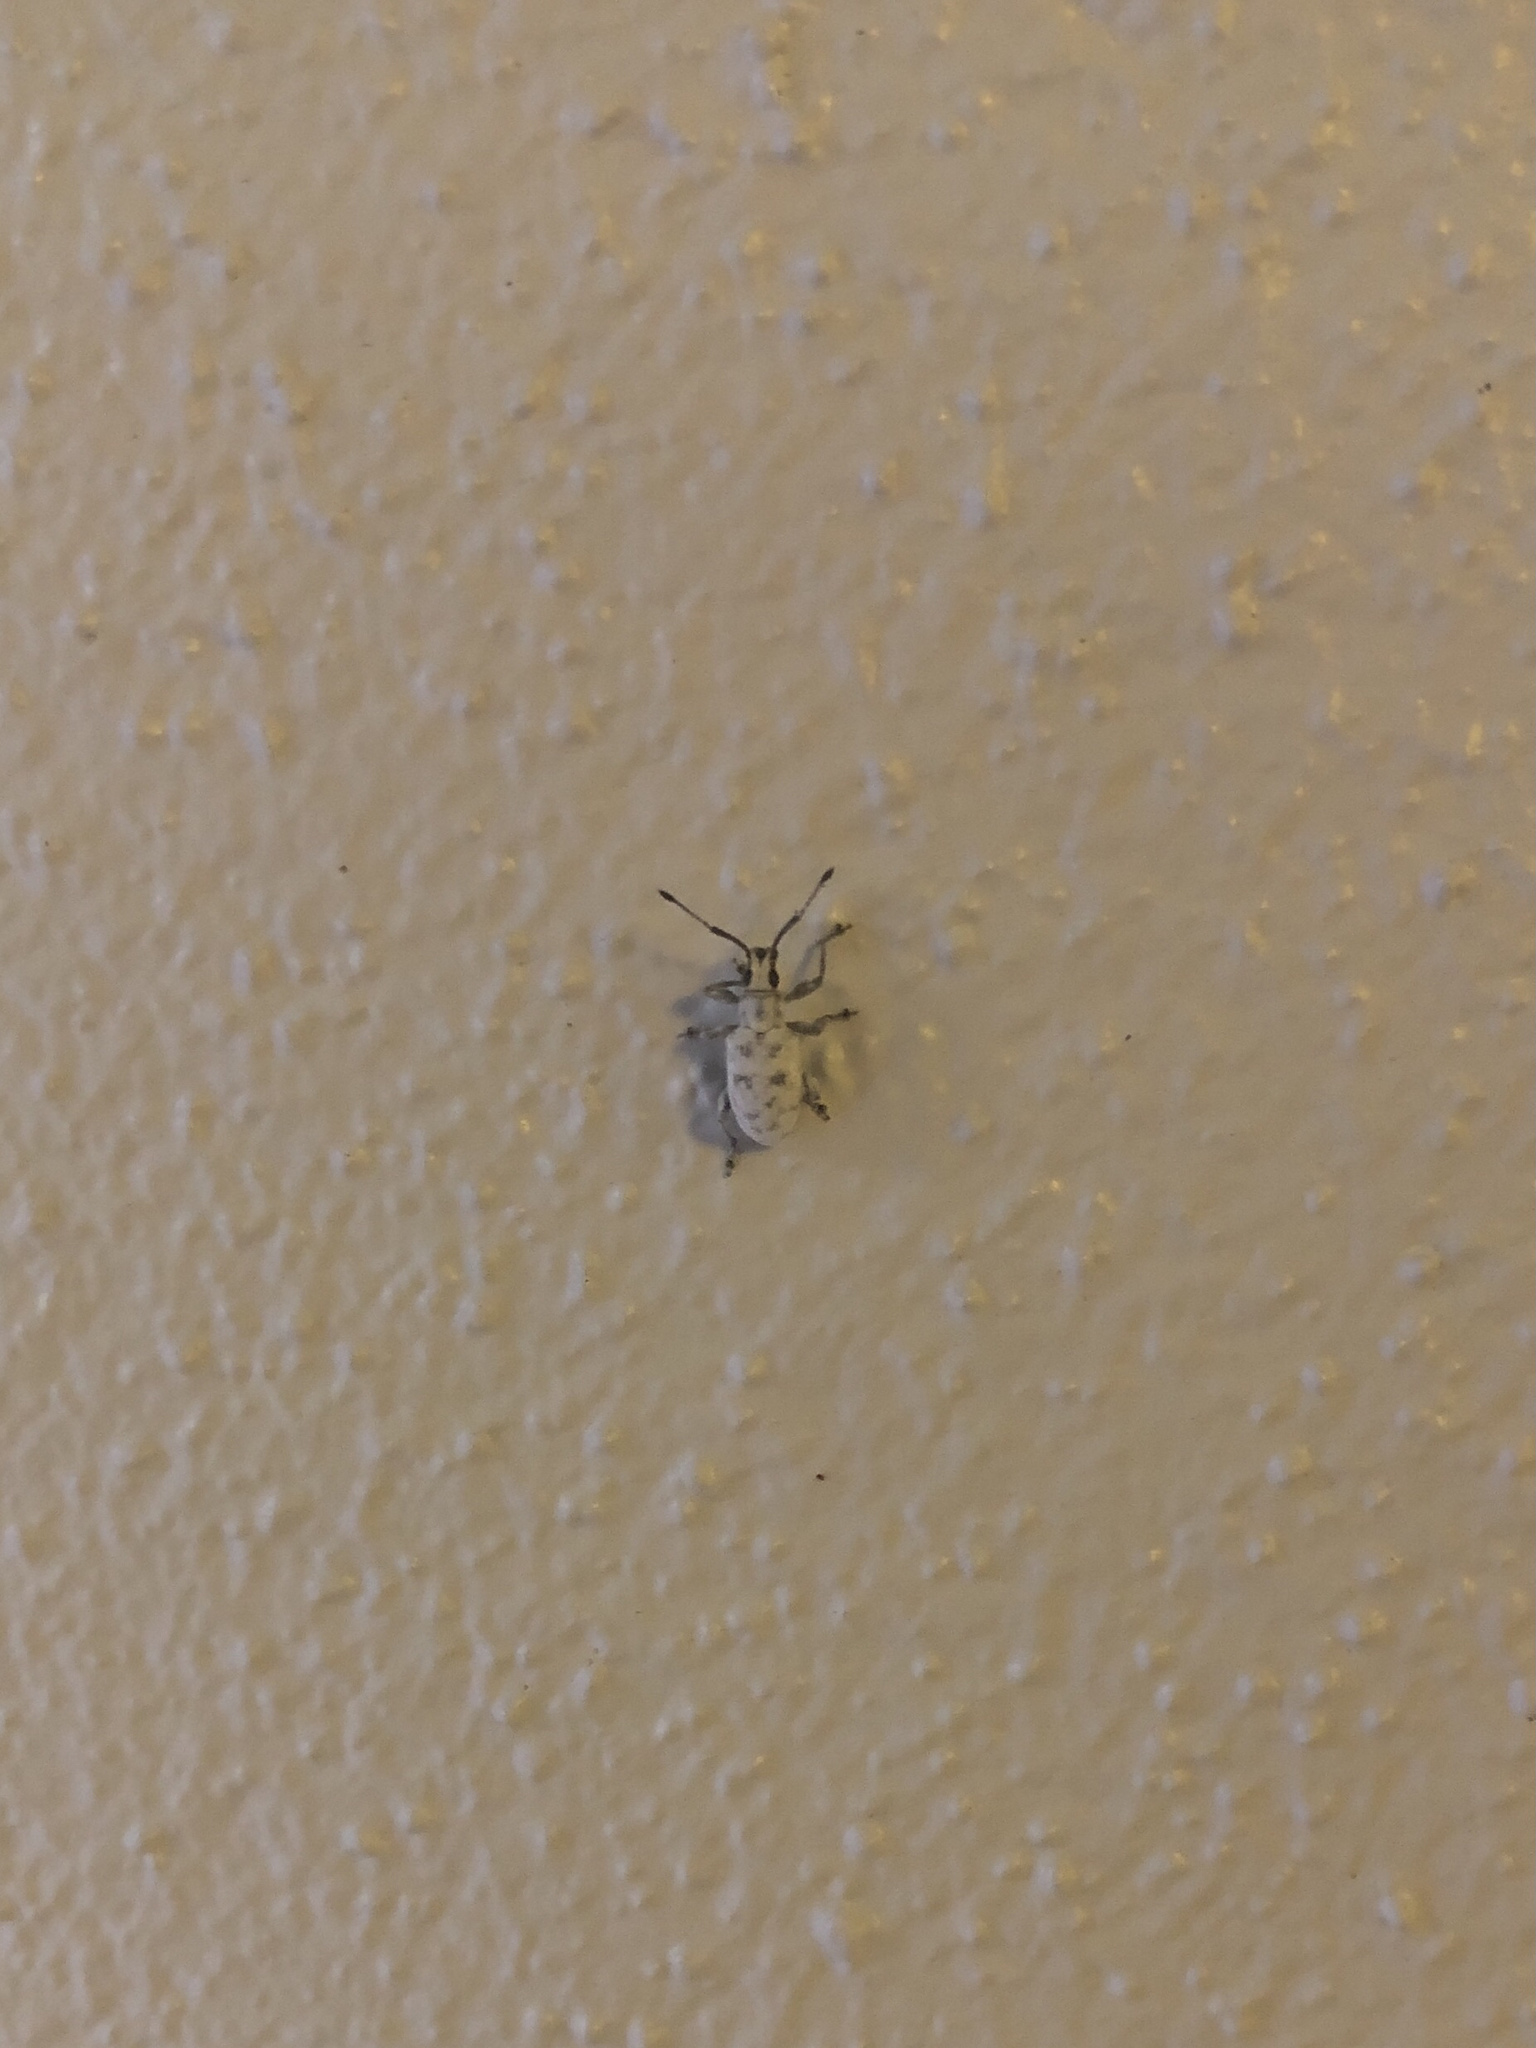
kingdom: Animalia
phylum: Arthropoda
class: Insecta
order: Coleoptera
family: Curculionidae
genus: Myllocerus
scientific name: Myllocerus undecimpustulatus
